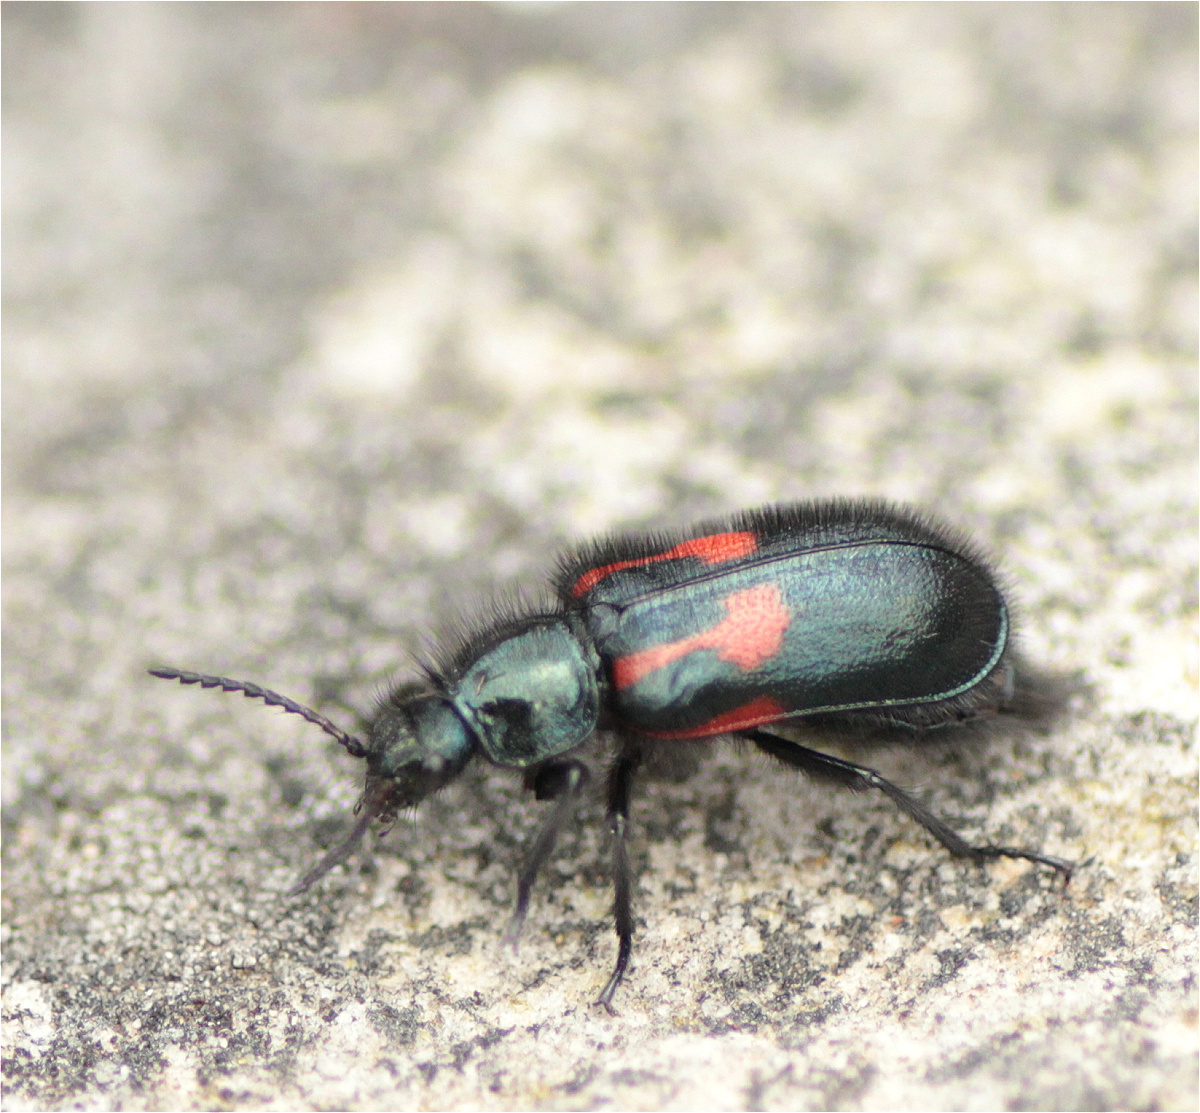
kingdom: Animalia
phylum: Arthropoda
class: Insecta
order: Coleoptera
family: Melyridae
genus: Astylus
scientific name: Astylus
